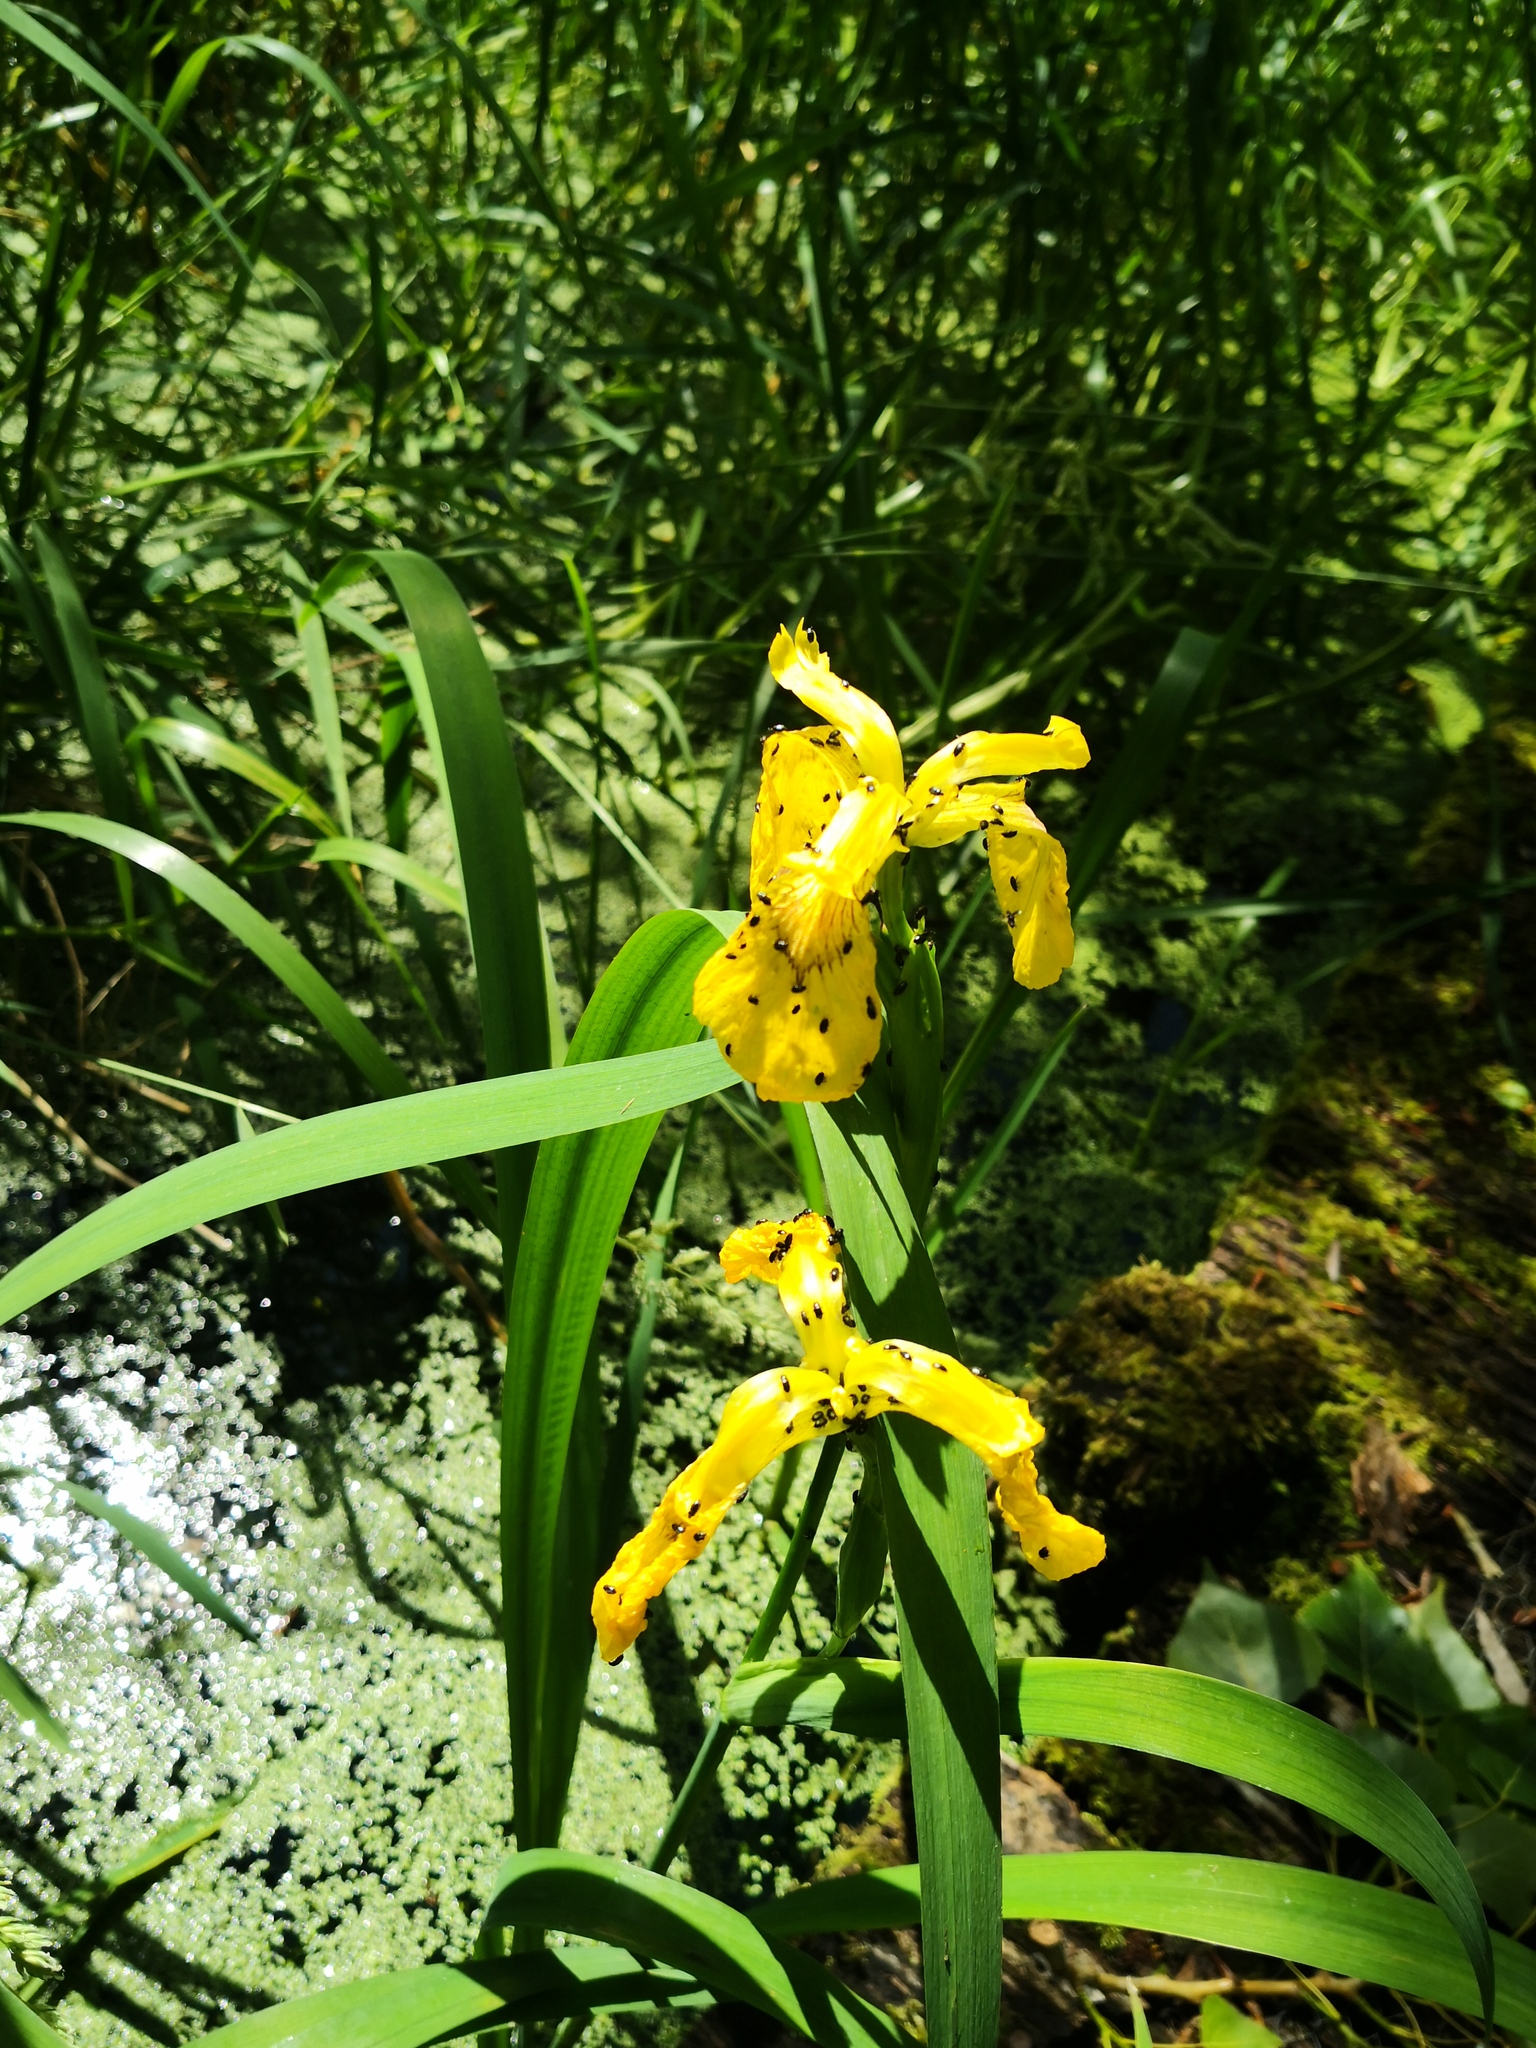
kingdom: Plantae
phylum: Tracheophyta
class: Liliopsida
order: Asparagales
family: Iridaceae
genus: Iris
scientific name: Iris pseudacorus
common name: Yellow flag
